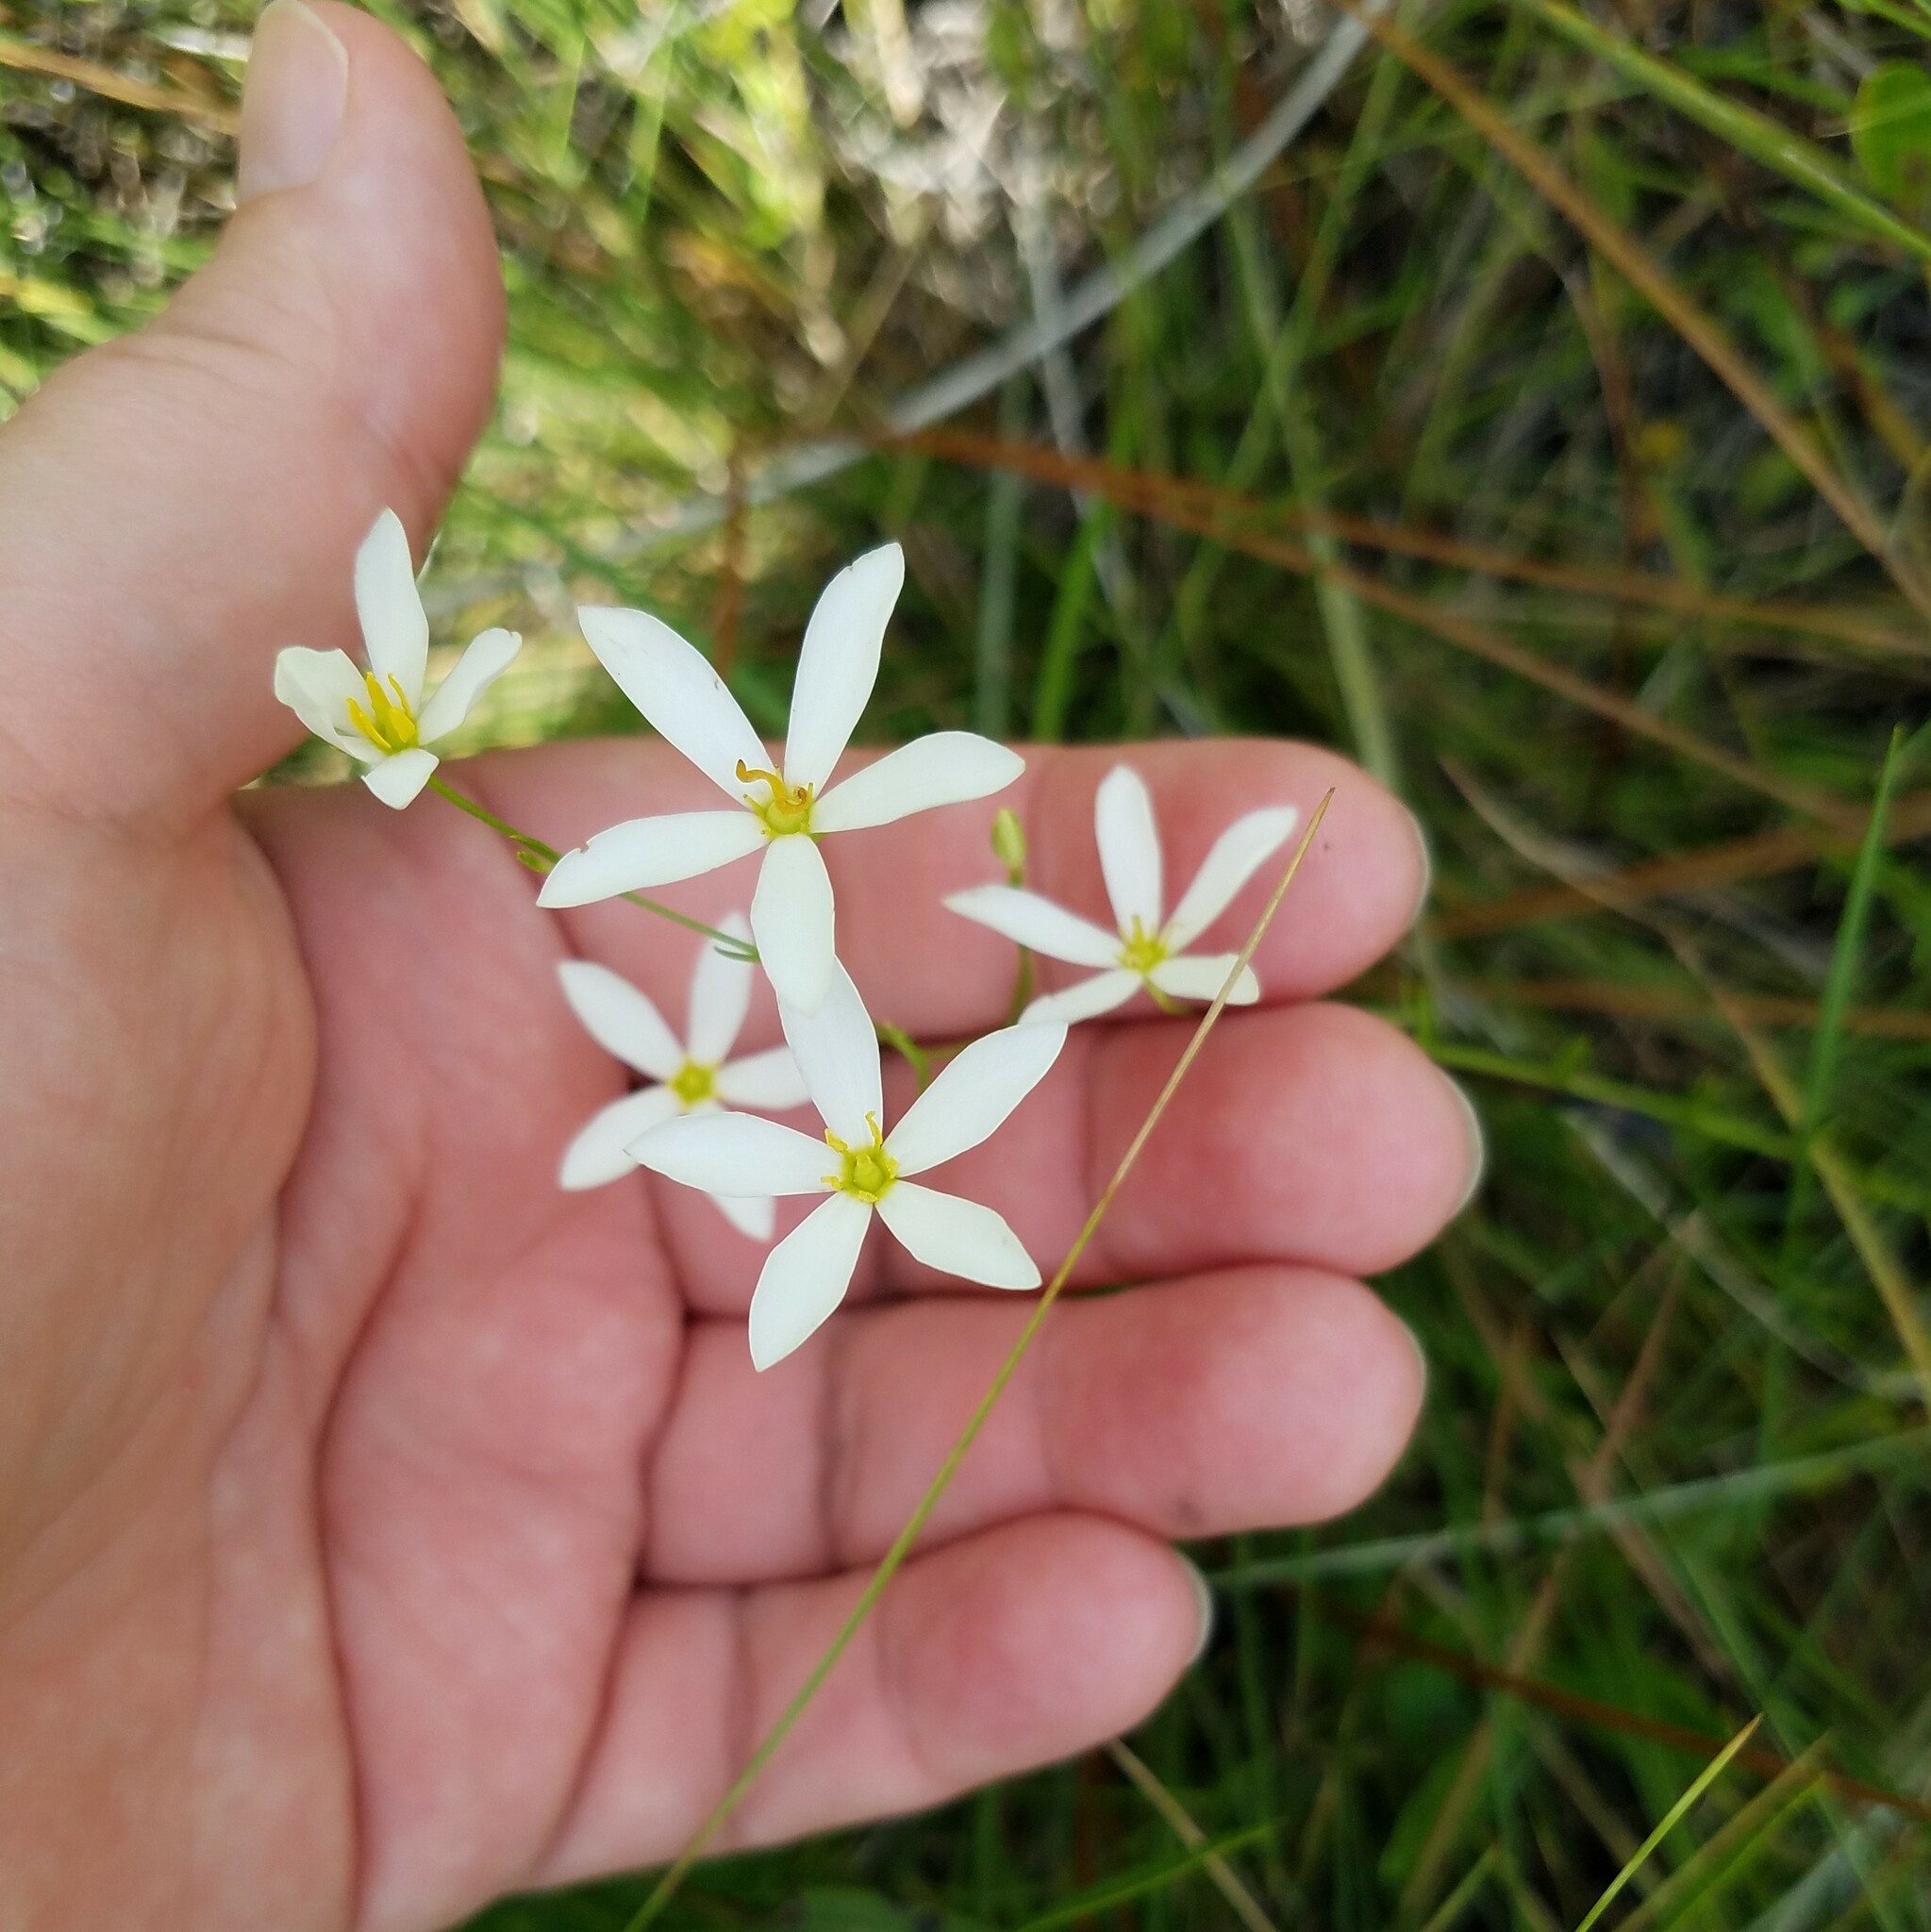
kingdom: Plantae
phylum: Tracheophyta
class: Magnoliopsida
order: Gentianales
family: Gentianaceae
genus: Sabatia
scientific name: Sabatia brevifolia
